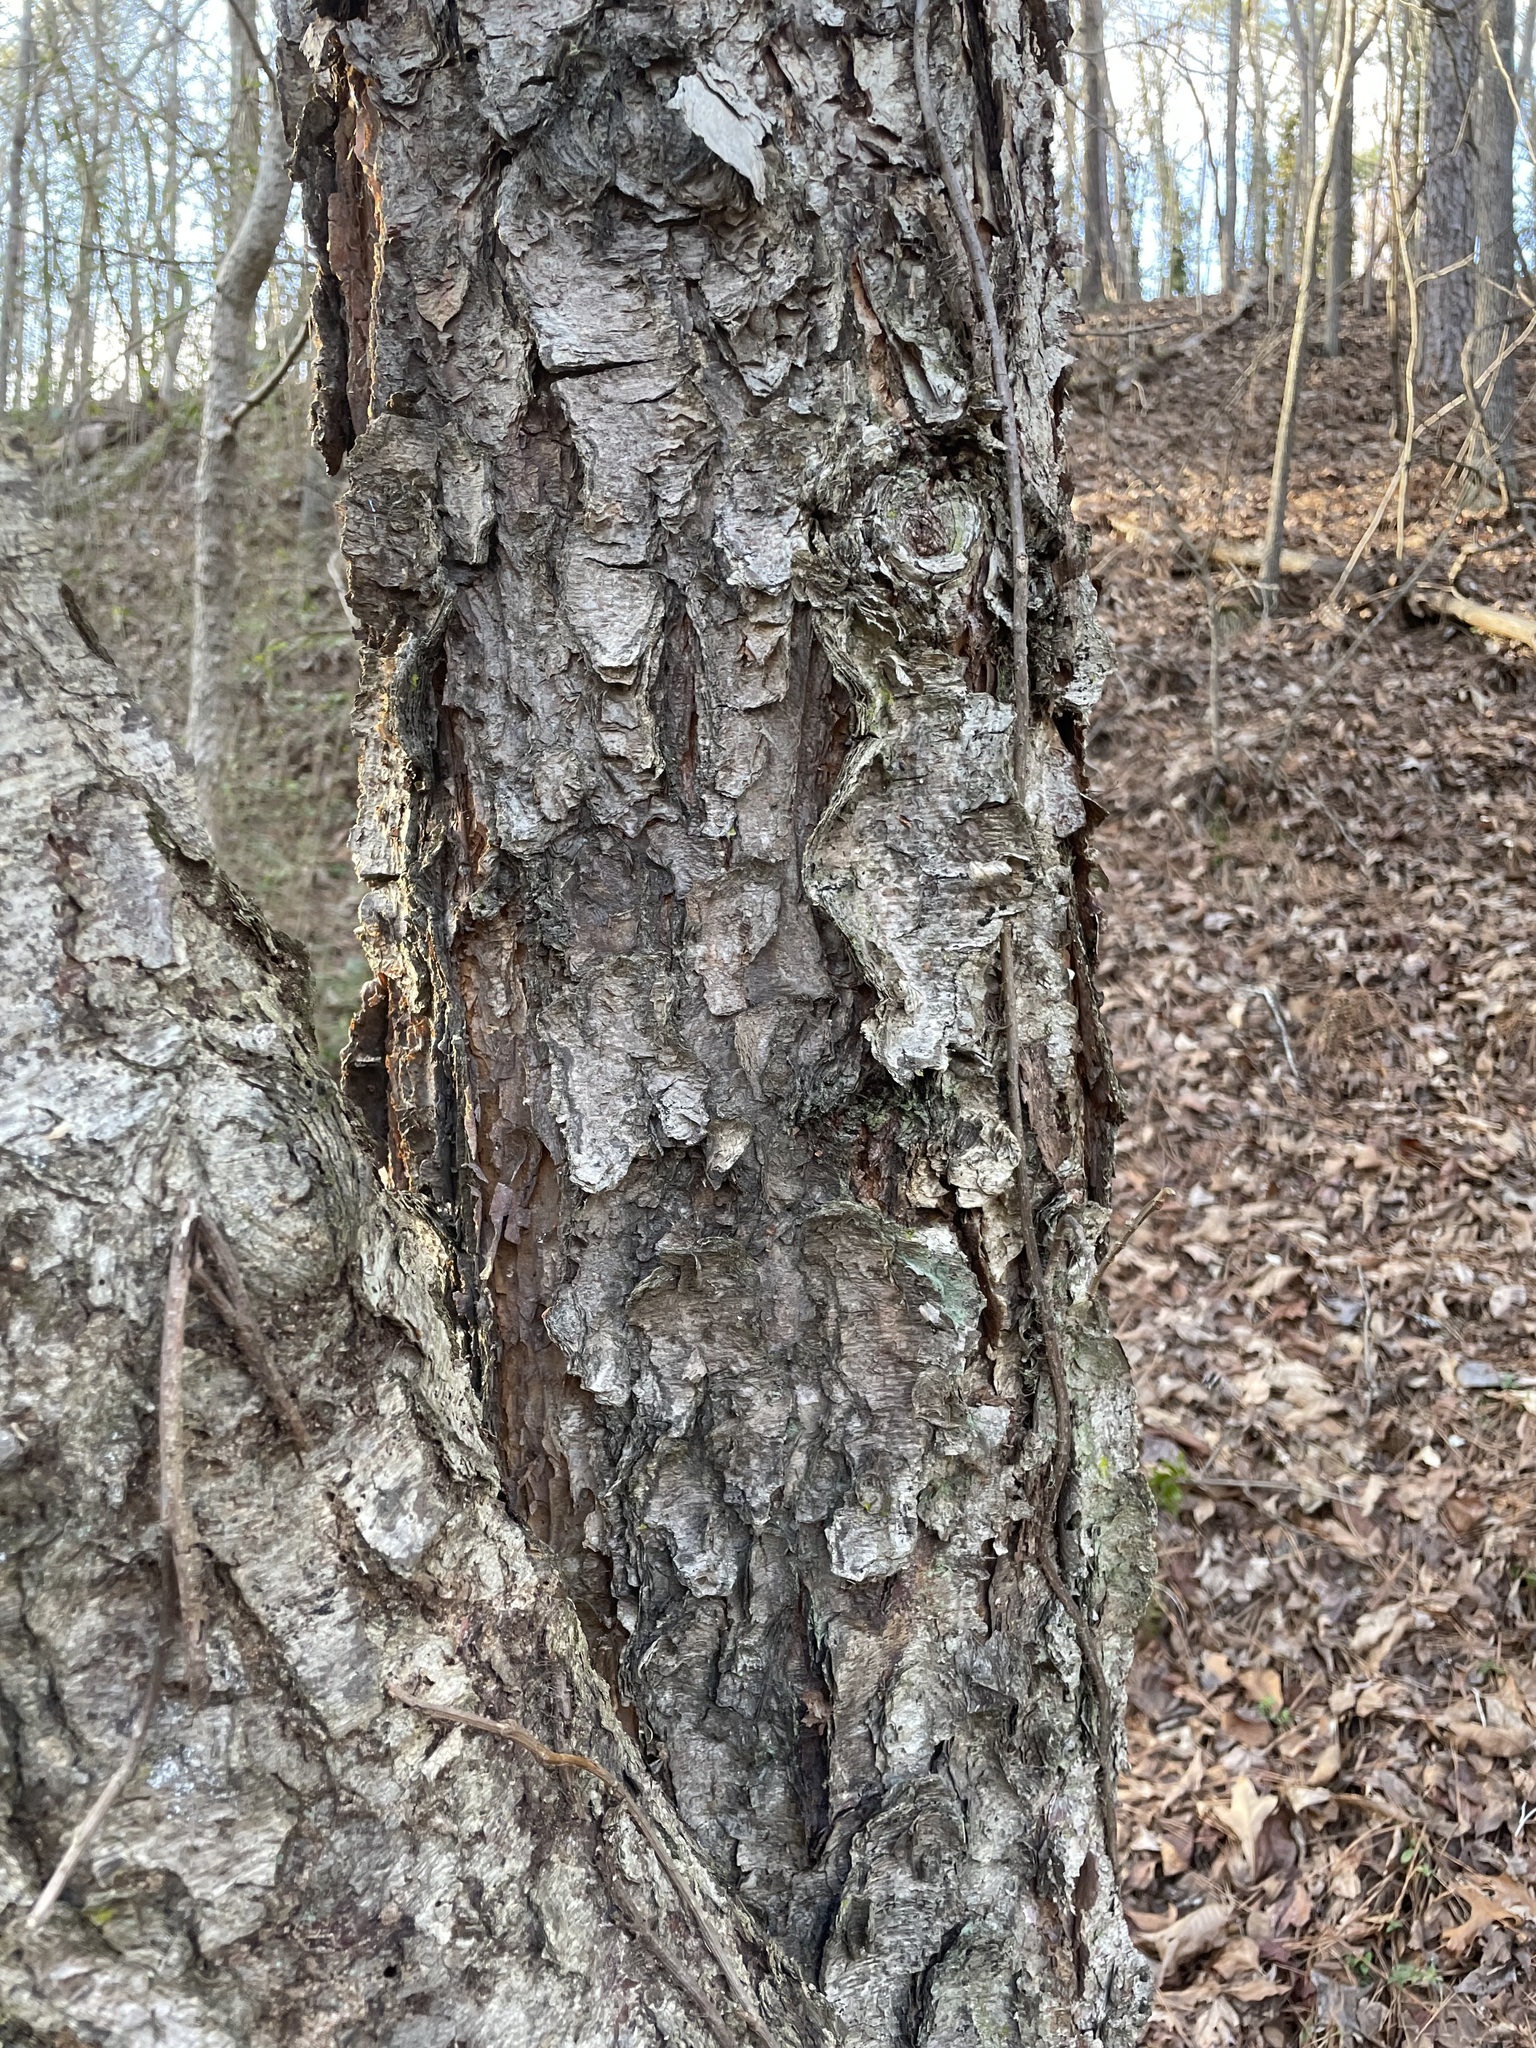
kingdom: Plantae
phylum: Tracheophyta
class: Magnoliopsida
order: Fagales
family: Betulaceae
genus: Betula
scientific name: Betula nigra
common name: Black birch
